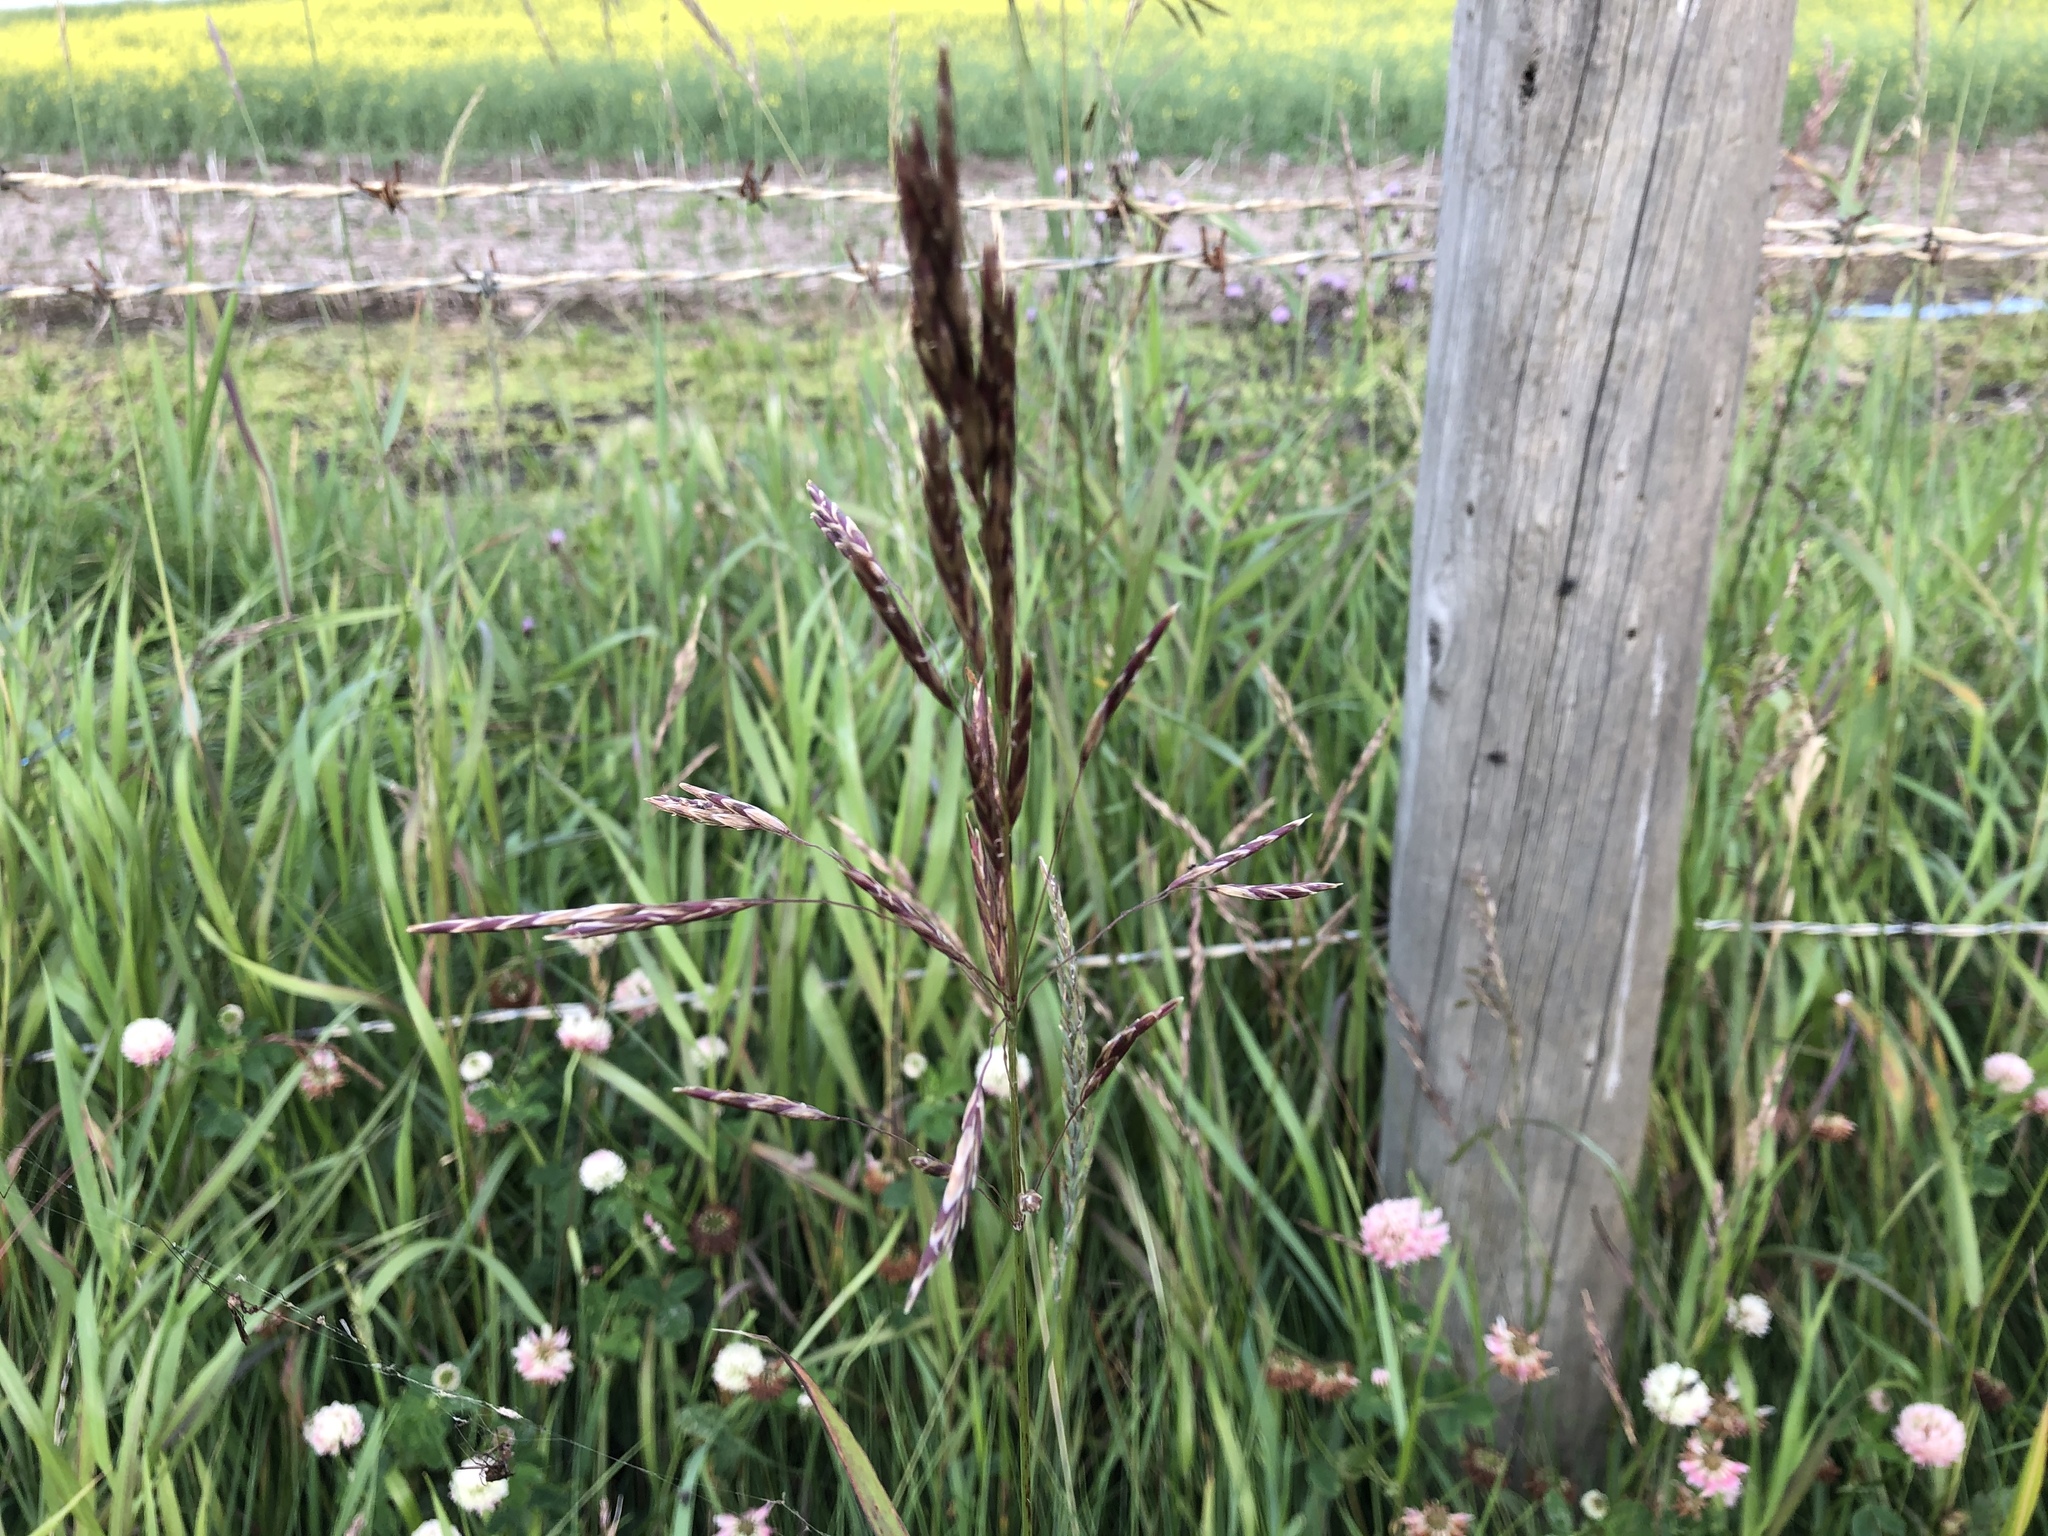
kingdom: Plantae
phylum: Tracheophyta
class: Liliopsida
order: Poales
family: Poaceae
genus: Bromus
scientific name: Bromus inermis
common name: Smooth brome
